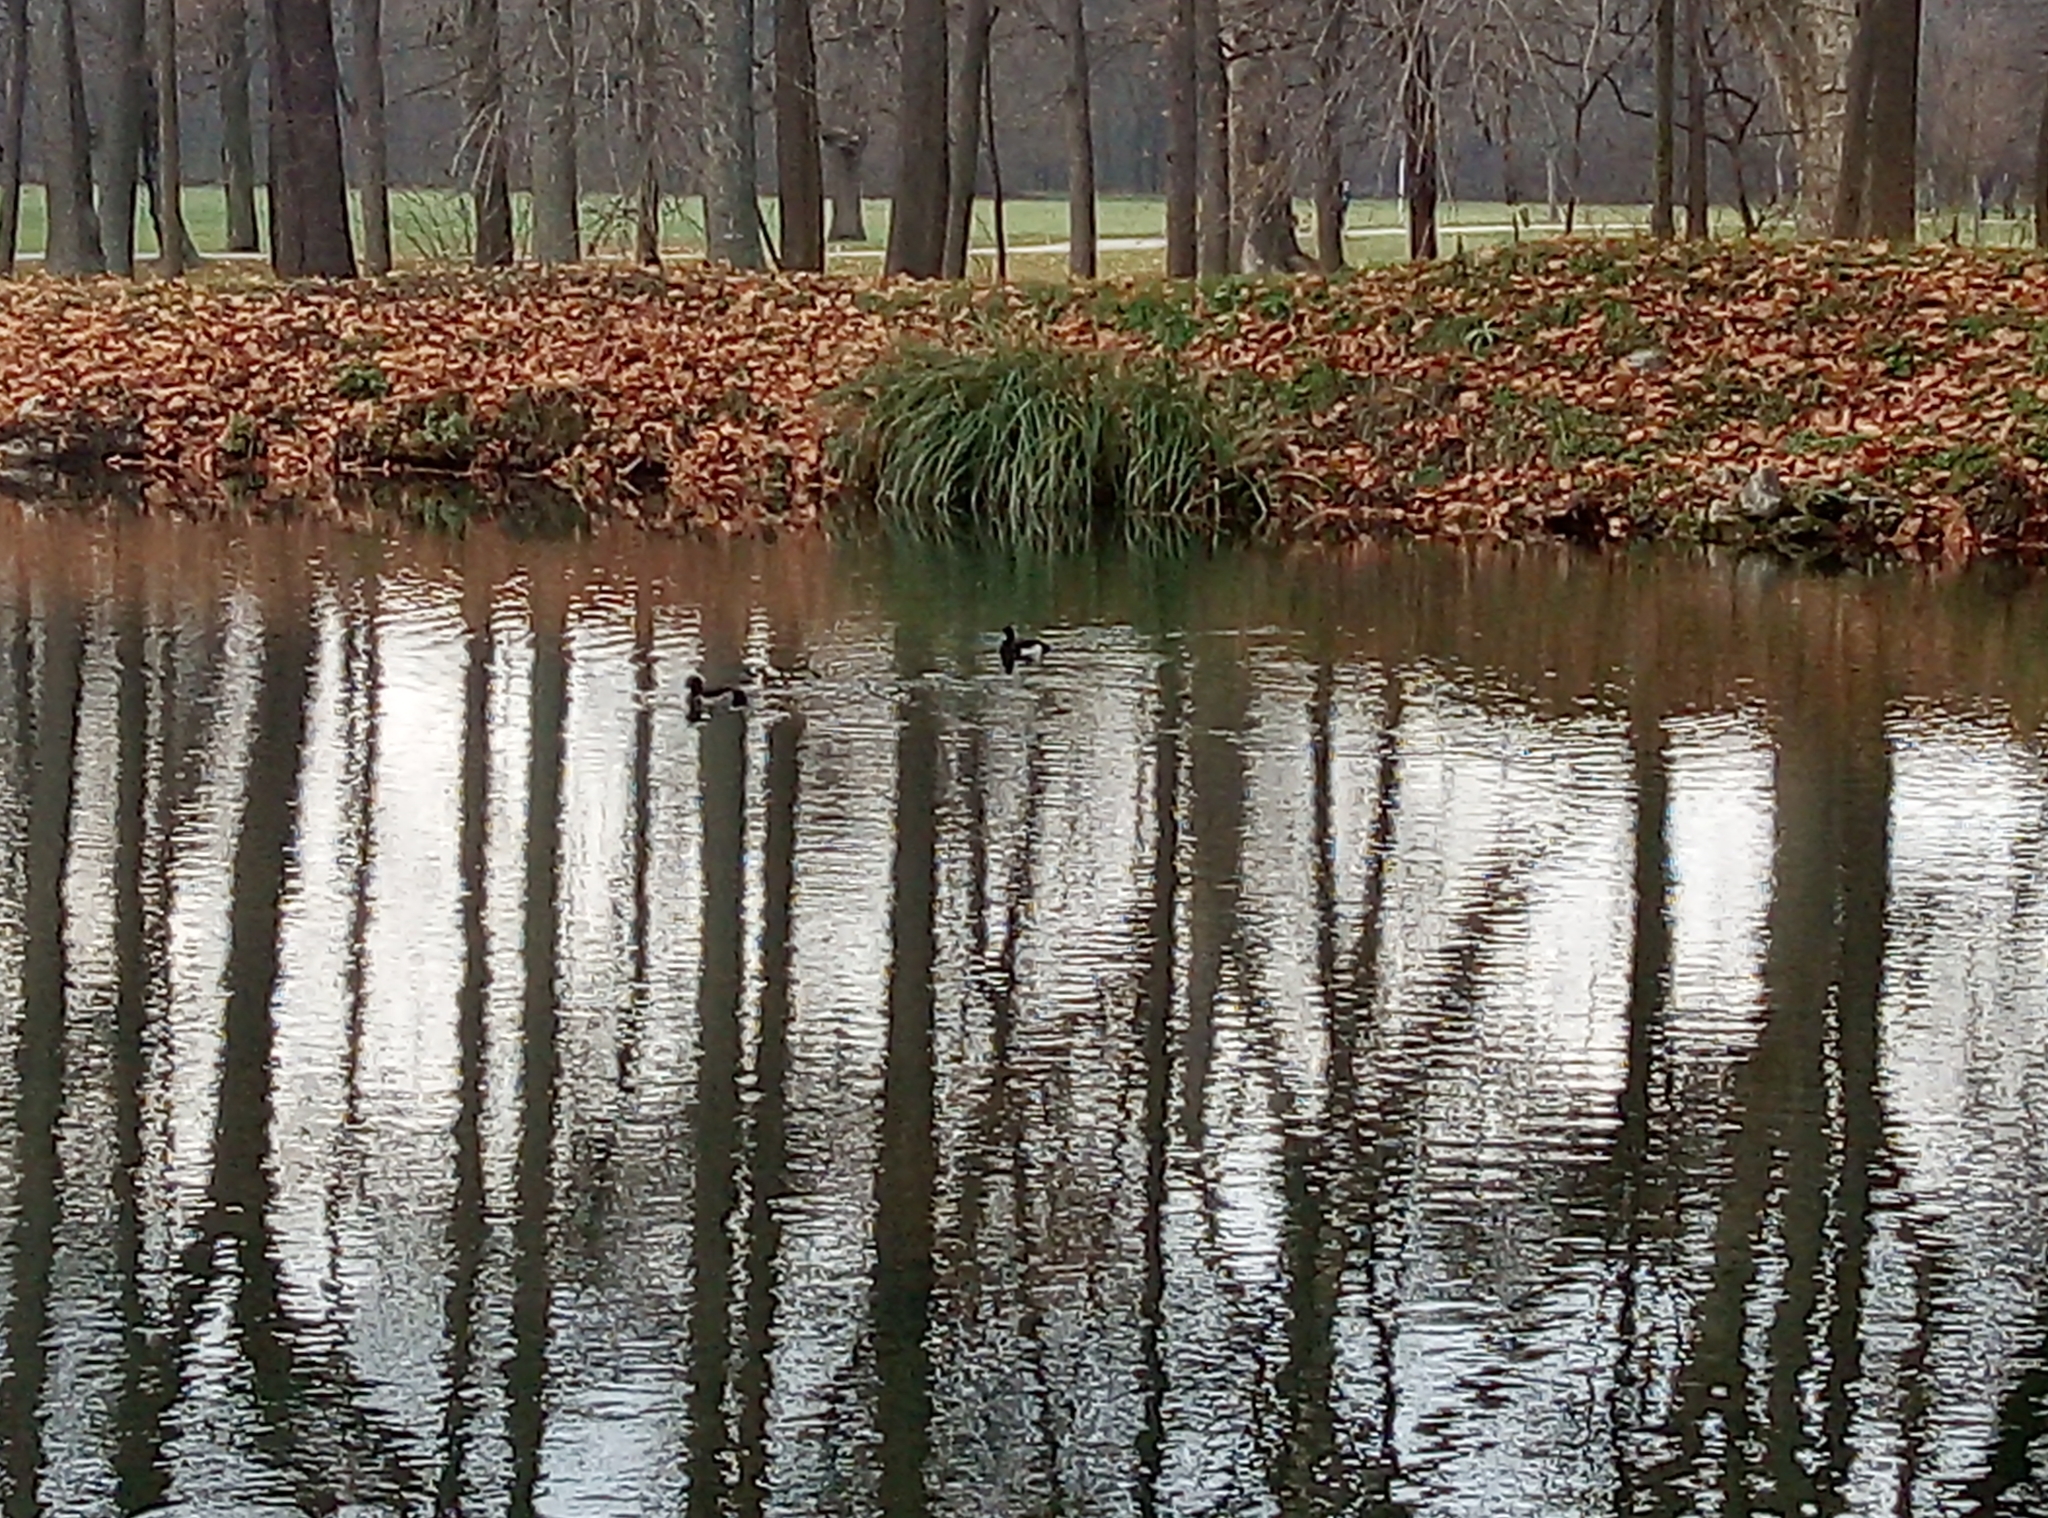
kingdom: Animalia
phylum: Chordata
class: Aves
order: Anseriformes
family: Anatidae
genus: Aythya
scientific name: Aythya fuligula
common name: Tufted duck
